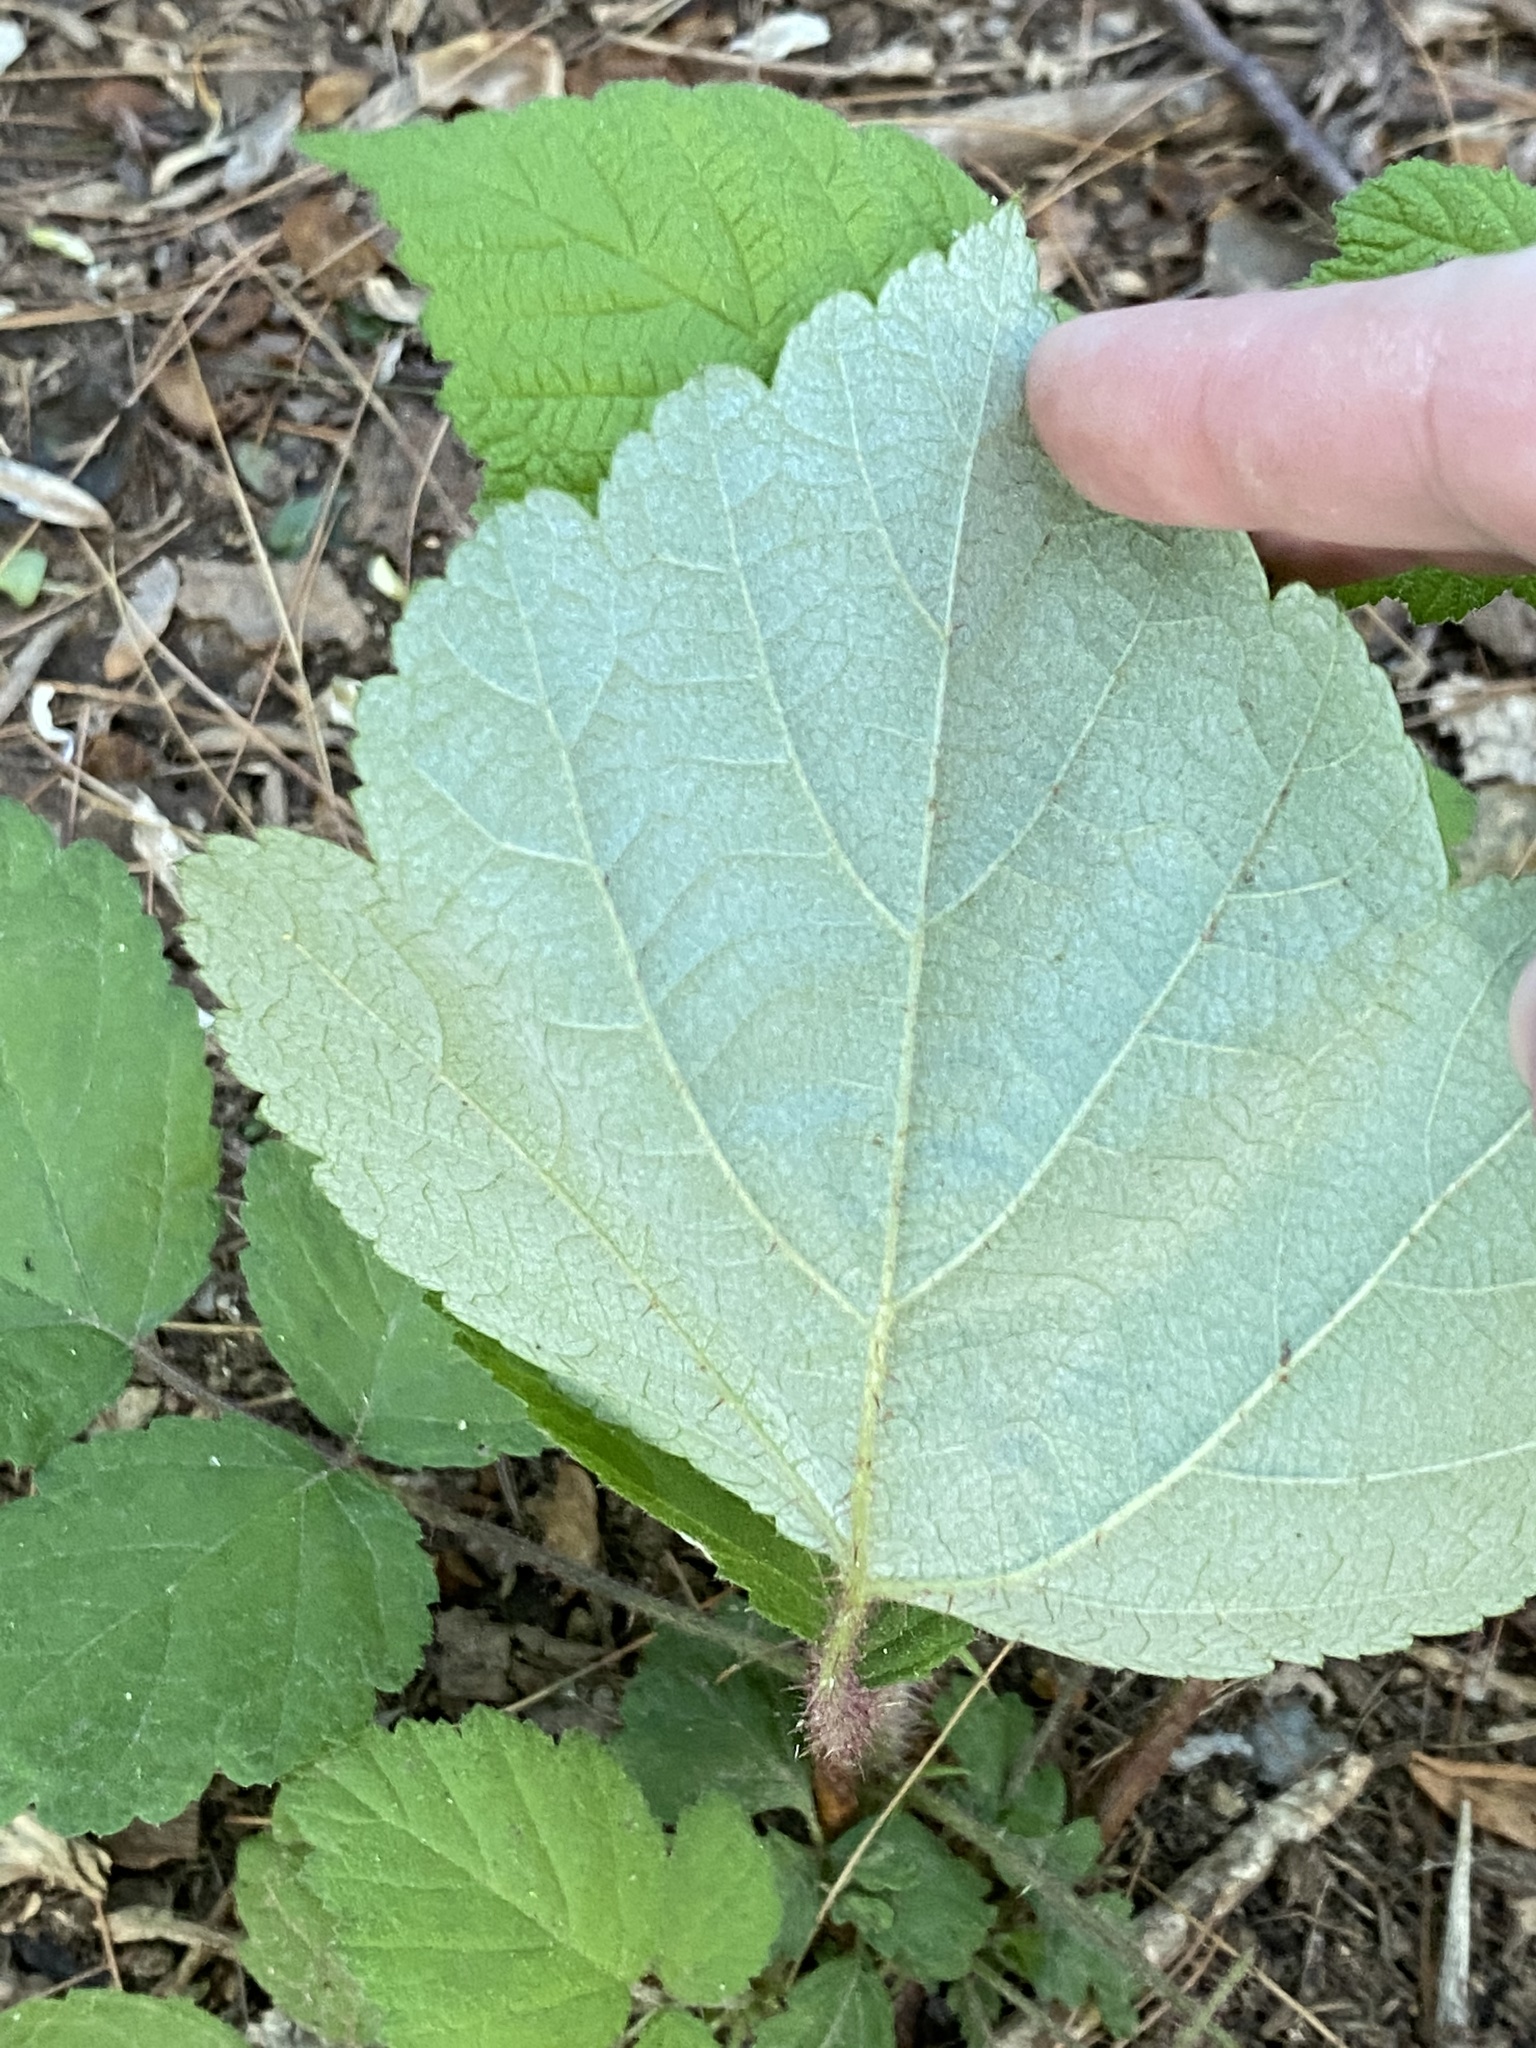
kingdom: Plantae
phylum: Tracheophyta
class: Magnoliopsida
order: Rosales
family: Rosaceae
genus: Rubus
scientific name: Rubus phoenicolasius
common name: Japanese wineberry
